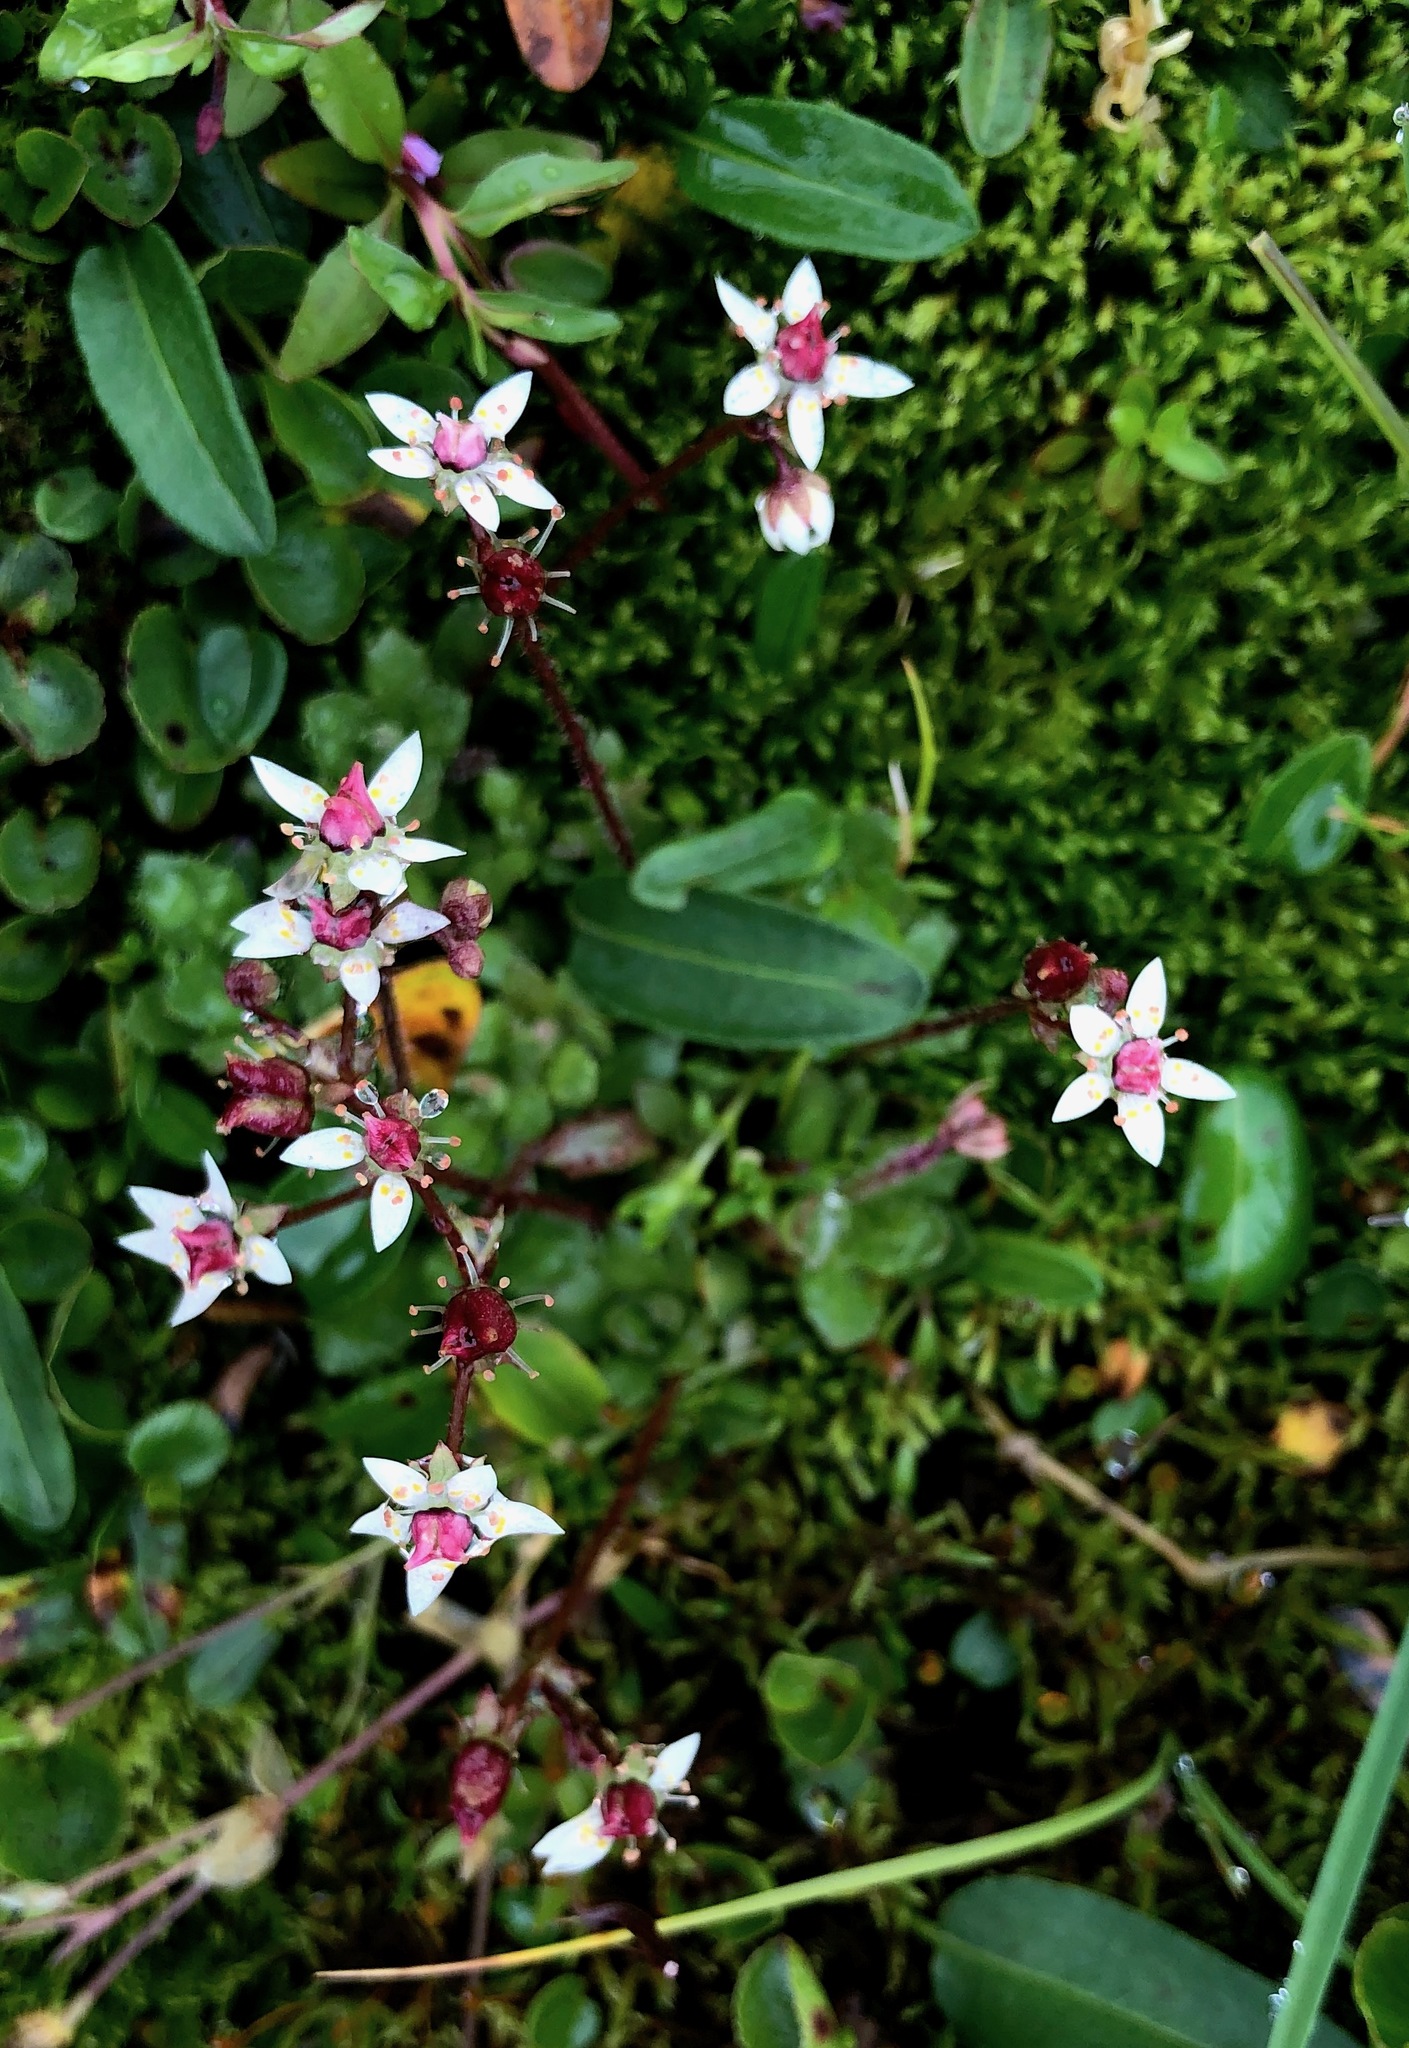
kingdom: Plantae
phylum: Tracheophyta
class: Magnoliopsida
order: Saxifragales
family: Saxifragaceae
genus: Micranthes
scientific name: Micranthes stellaris
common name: Starry saxifrage
